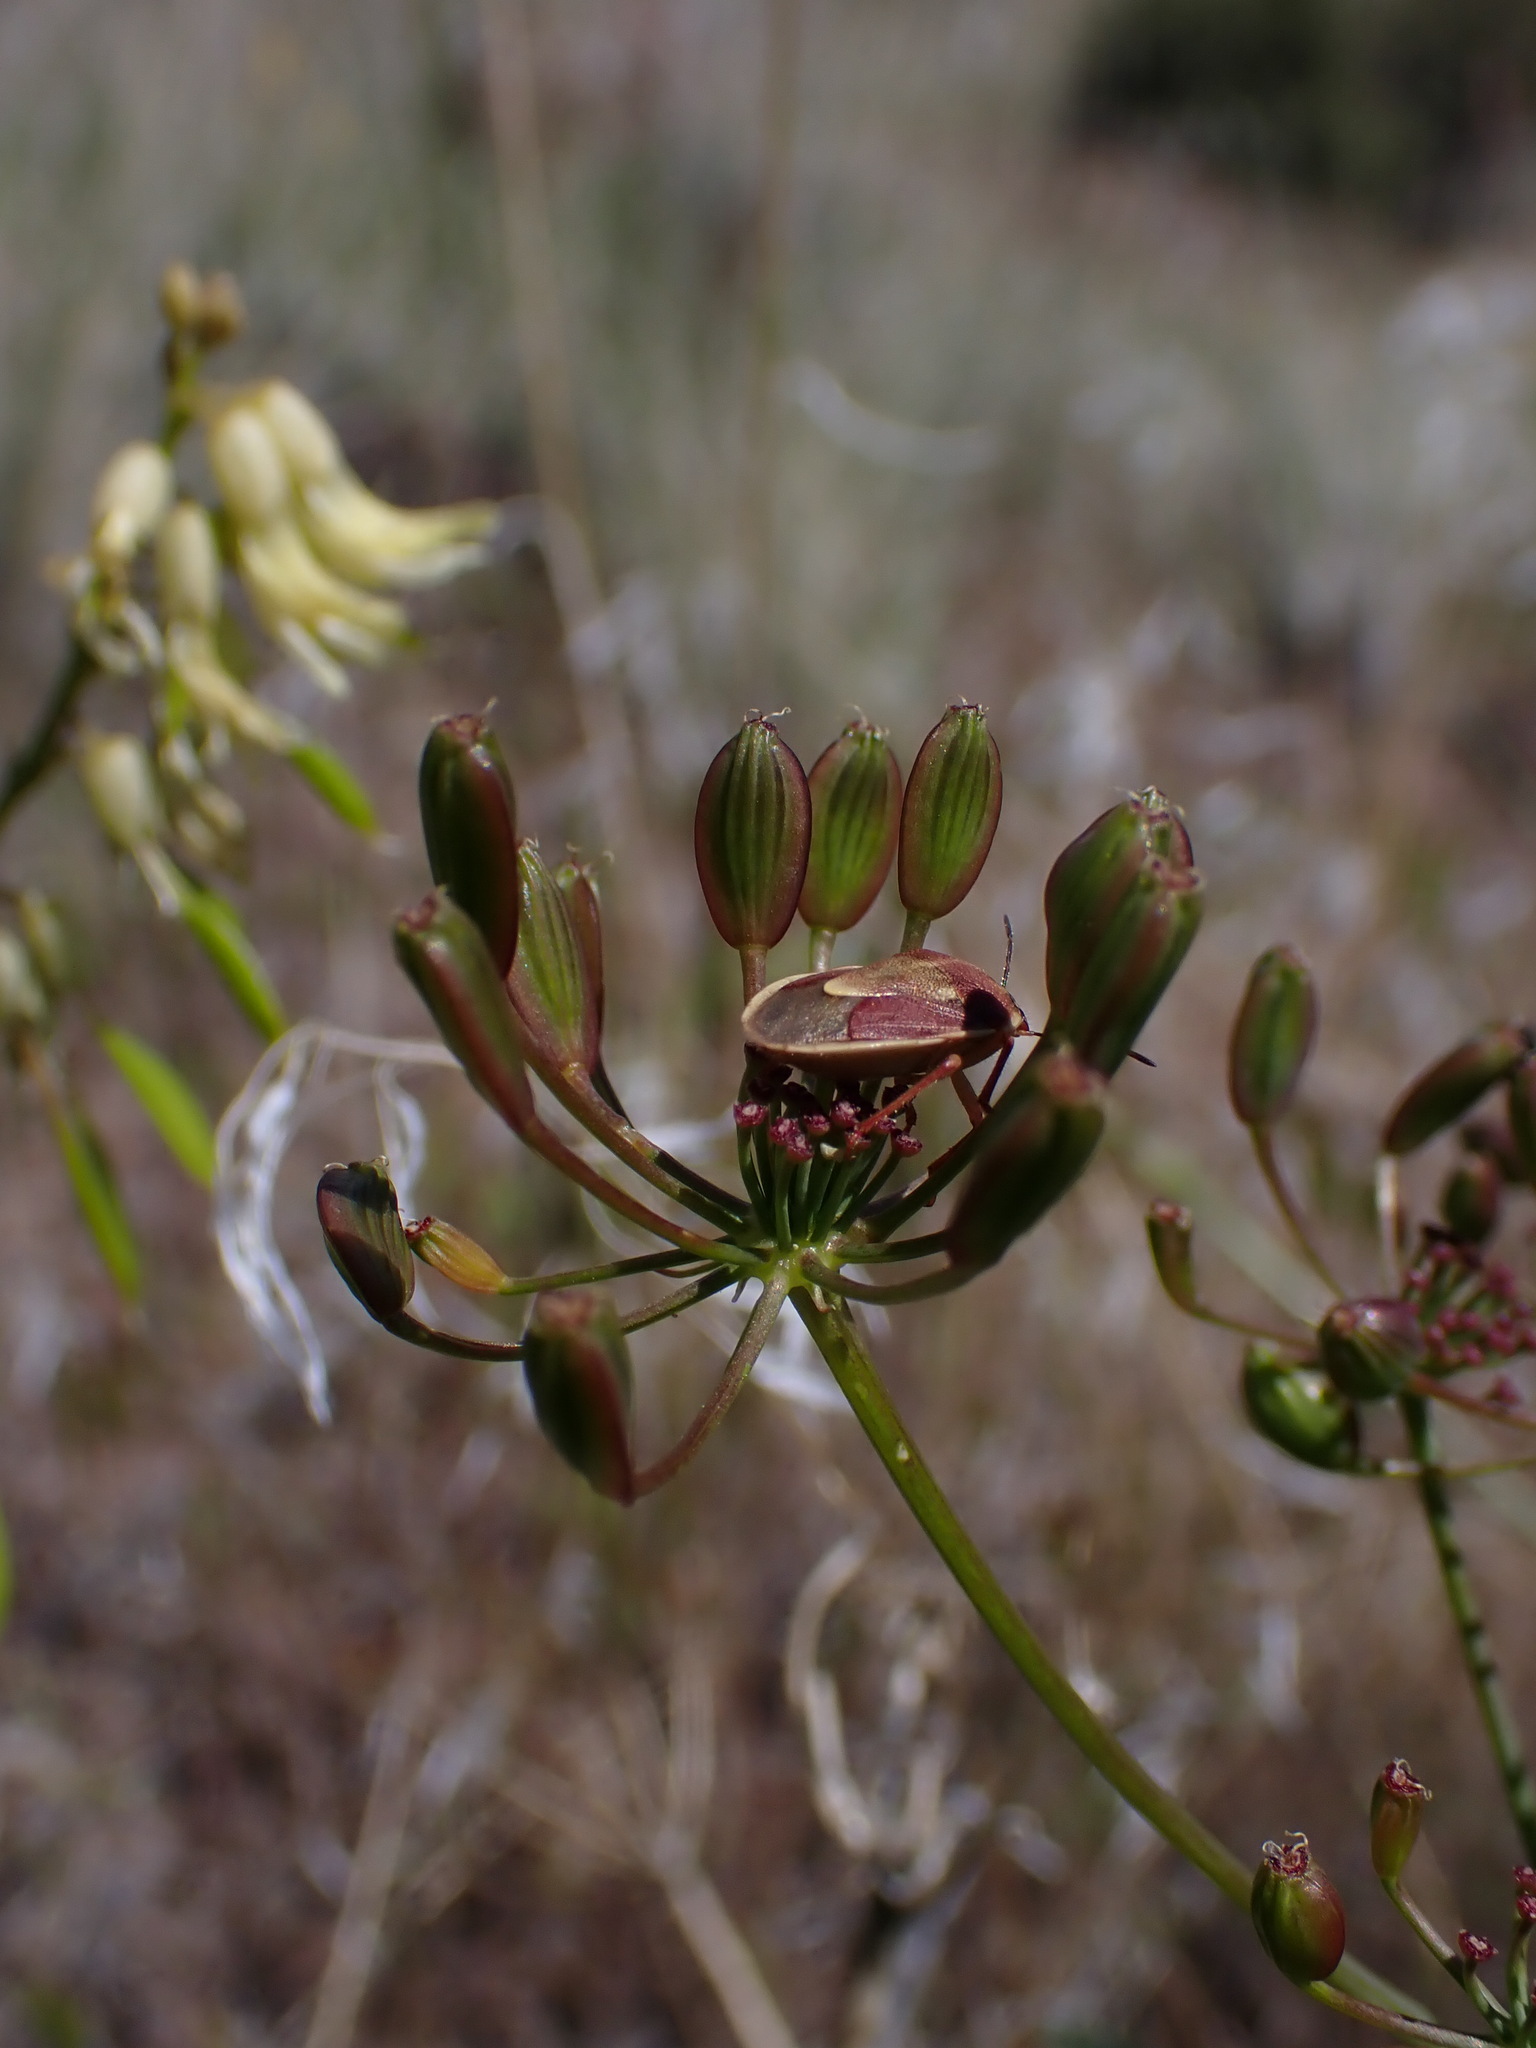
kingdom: Plantae
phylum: Tracheophyta
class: Magnoliopsida
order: Apiales
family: Apiaceae
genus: Lomatium
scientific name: Lomatium papilioniferum
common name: Butterfly lomatium
